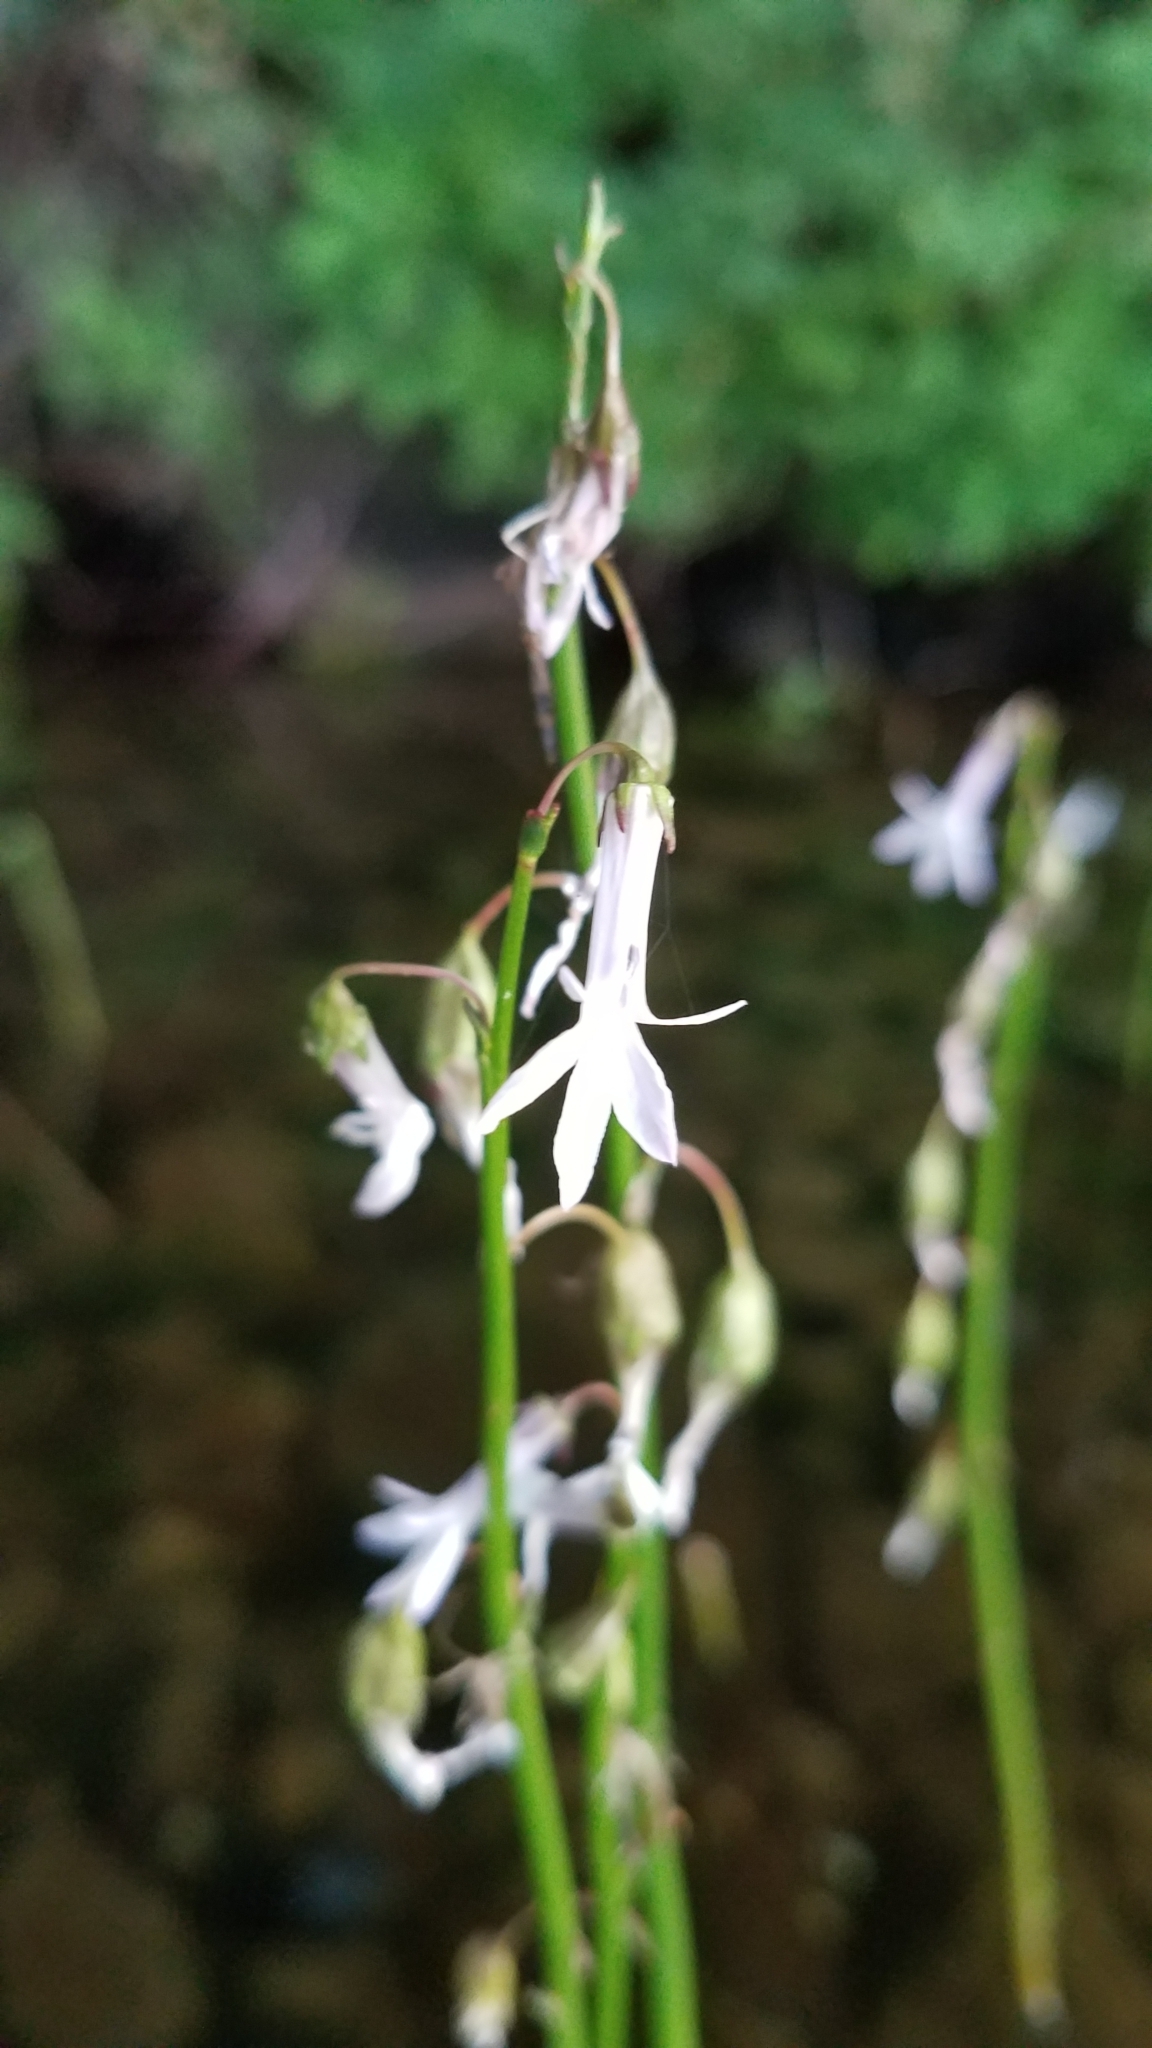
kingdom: Plantae
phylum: Tracheophyta
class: Magnoliopsida
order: Asterales
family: Campanulaceae
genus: Lobelia
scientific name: Lobelia dortmanna
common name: Water lobelia
